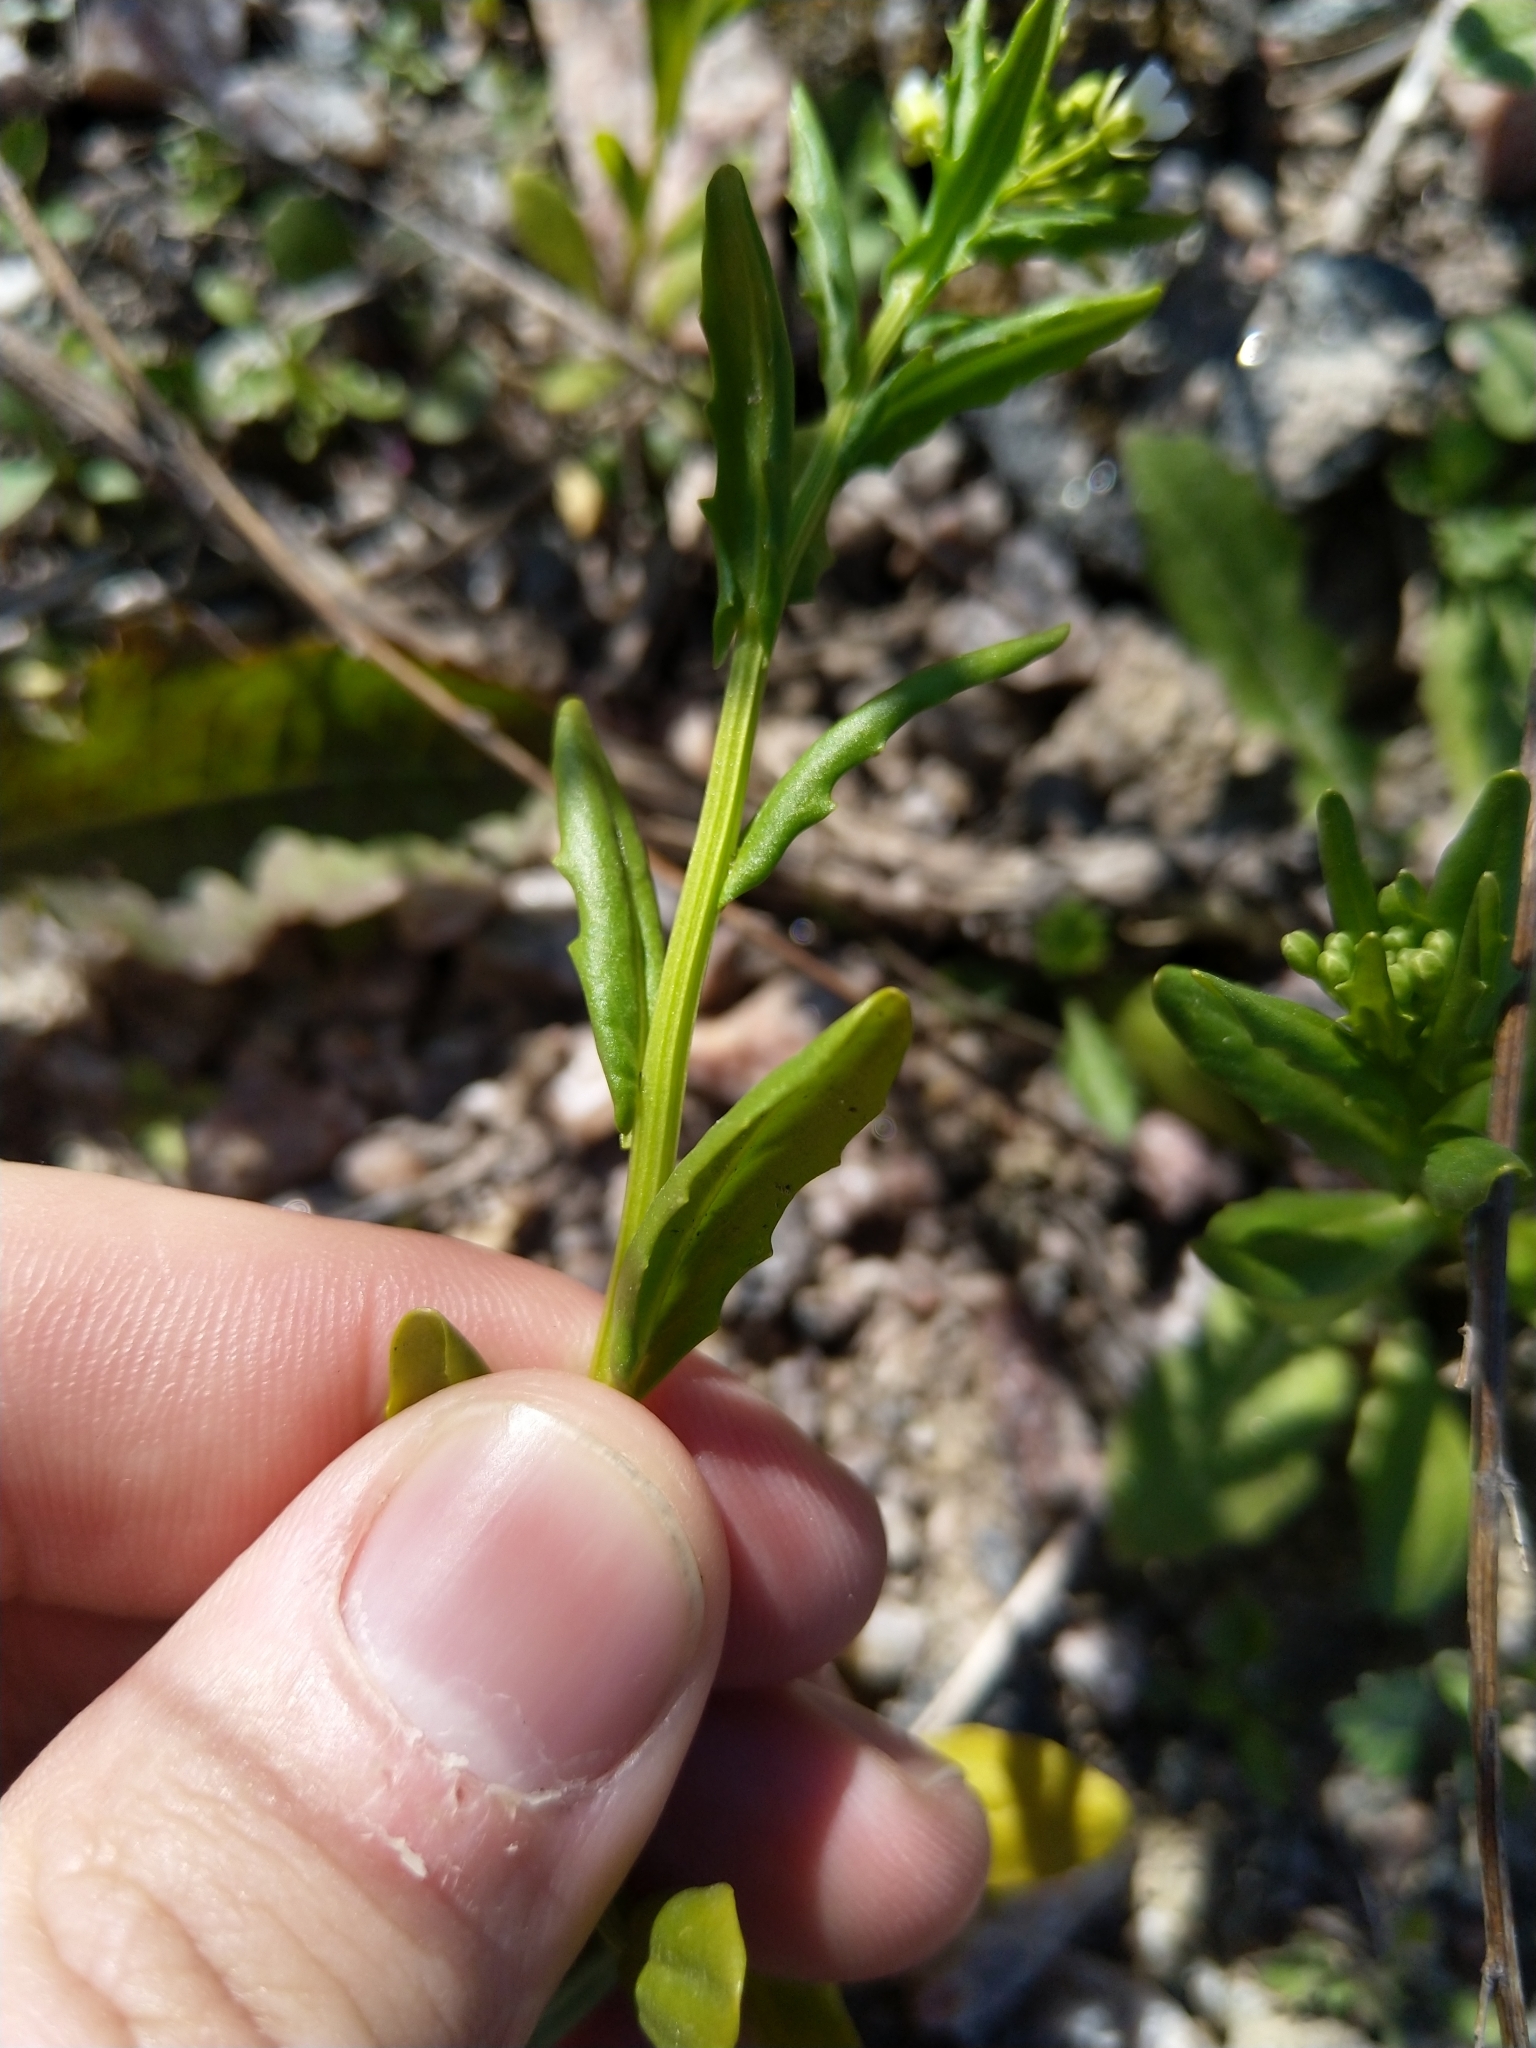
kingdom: Plantae
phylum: Tracheophyta
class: Magnoliopsida
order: Brassicales
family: Brassicaceae
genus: Thlaspi
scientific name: Thlaspi arvense
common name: Field pennycress
